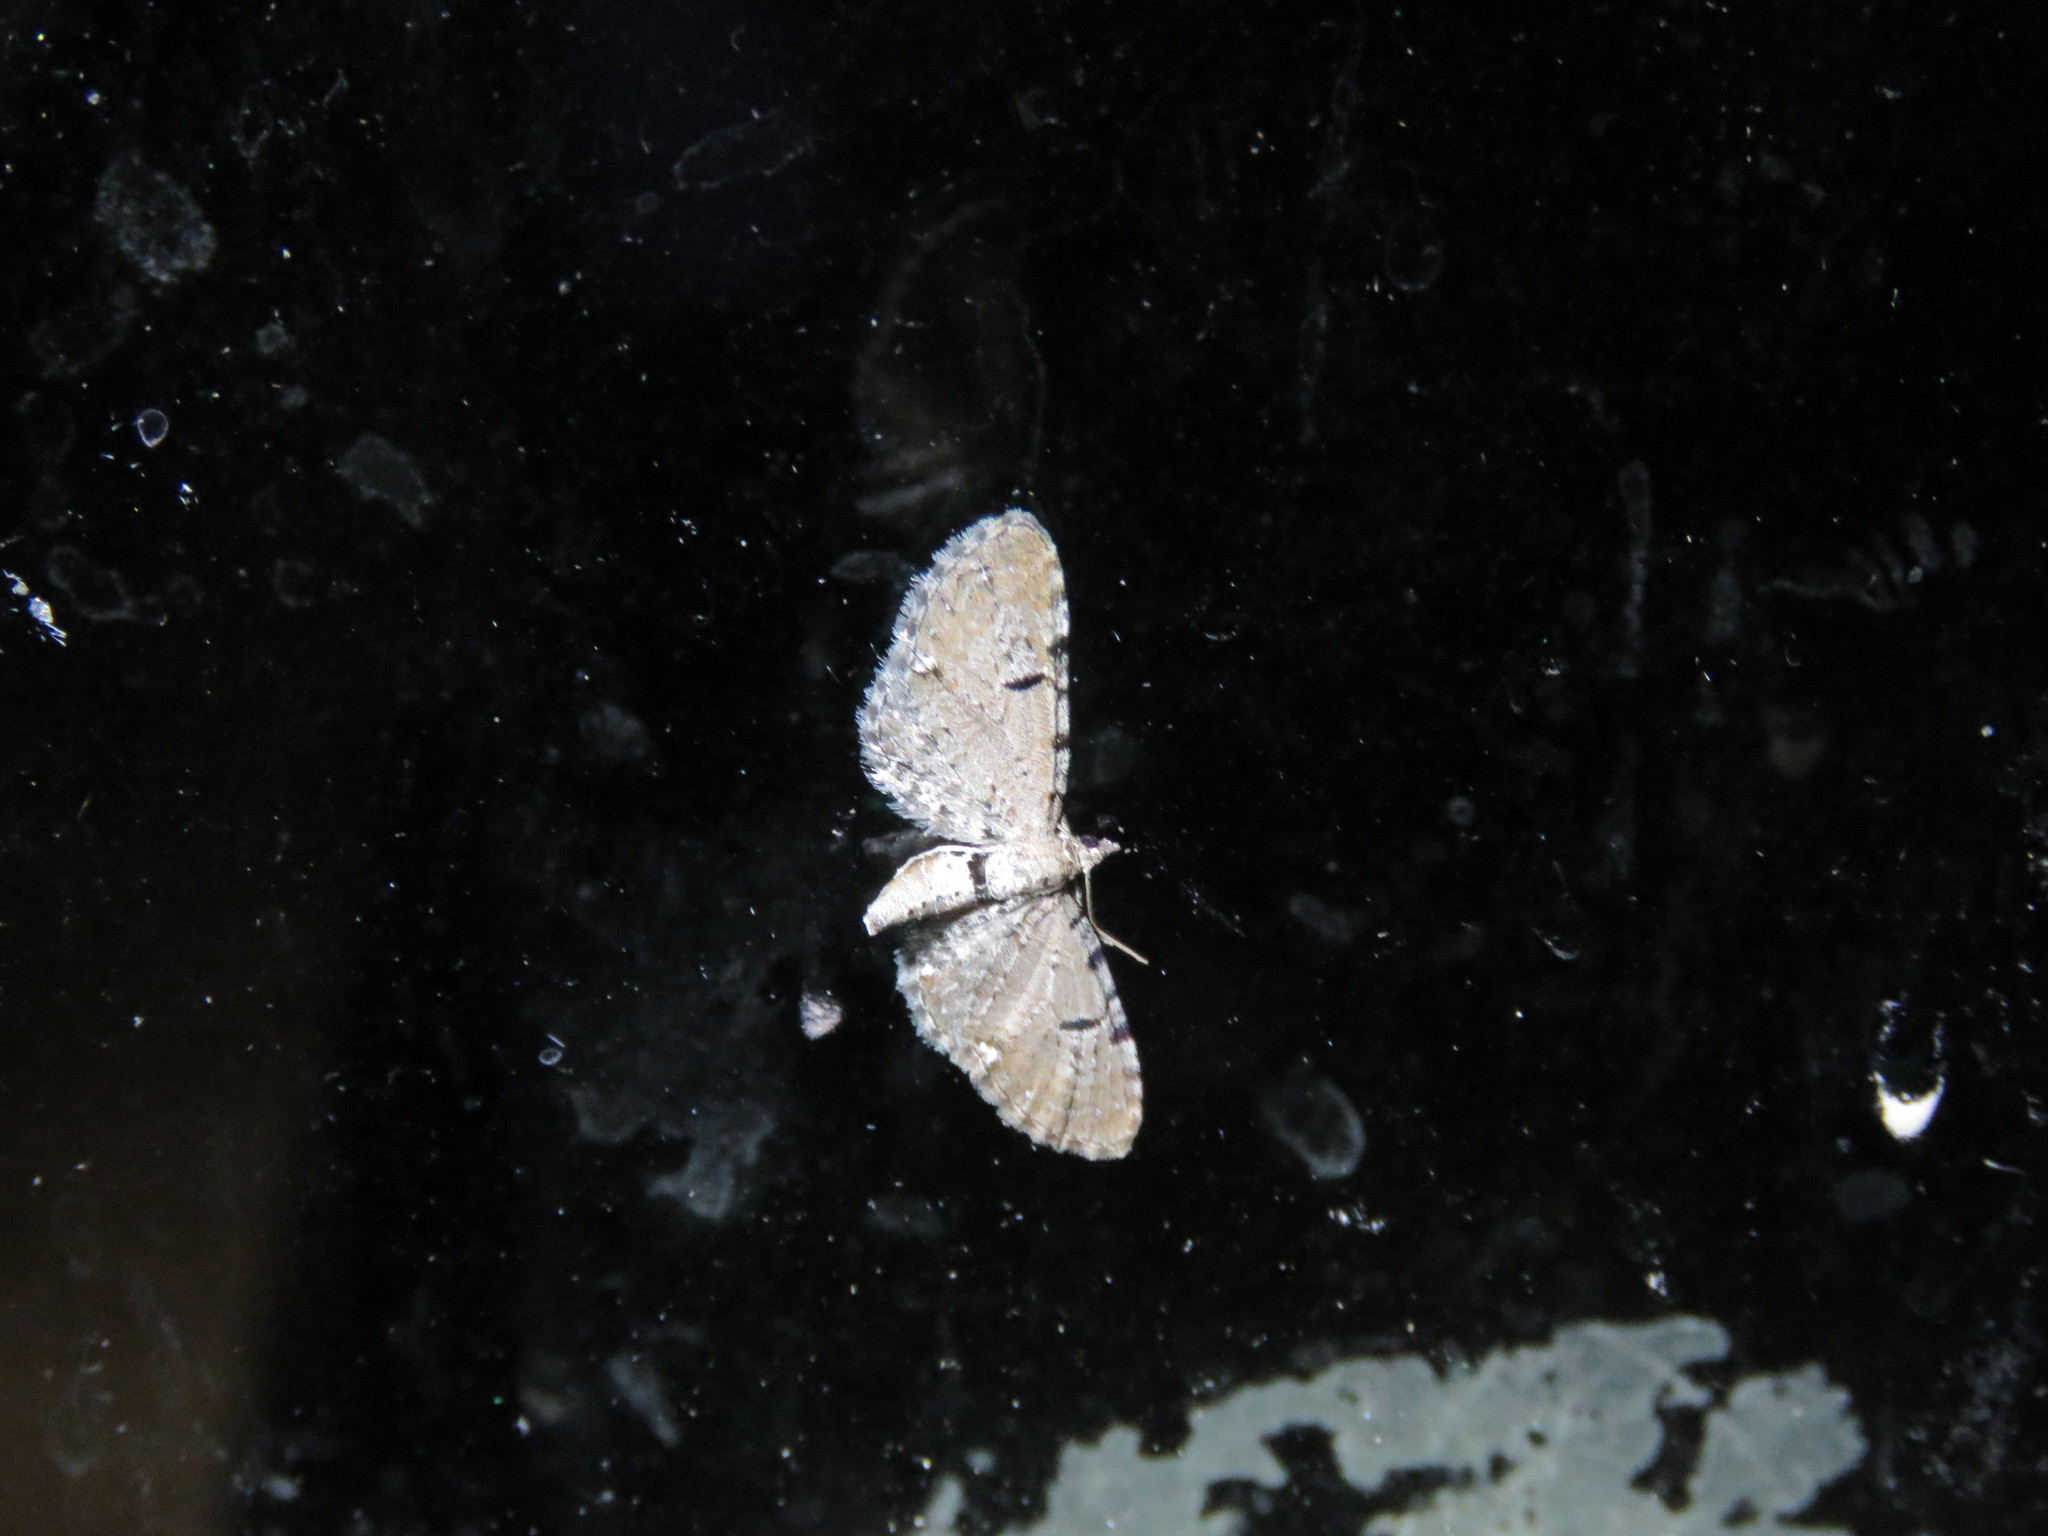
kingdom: Animalia
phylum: Arthropoda
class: Insecta
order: Lepidoptera
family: Geometridae
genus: Eupithecia
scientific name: Eupithecia absinthiata
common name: Wormwood pug
